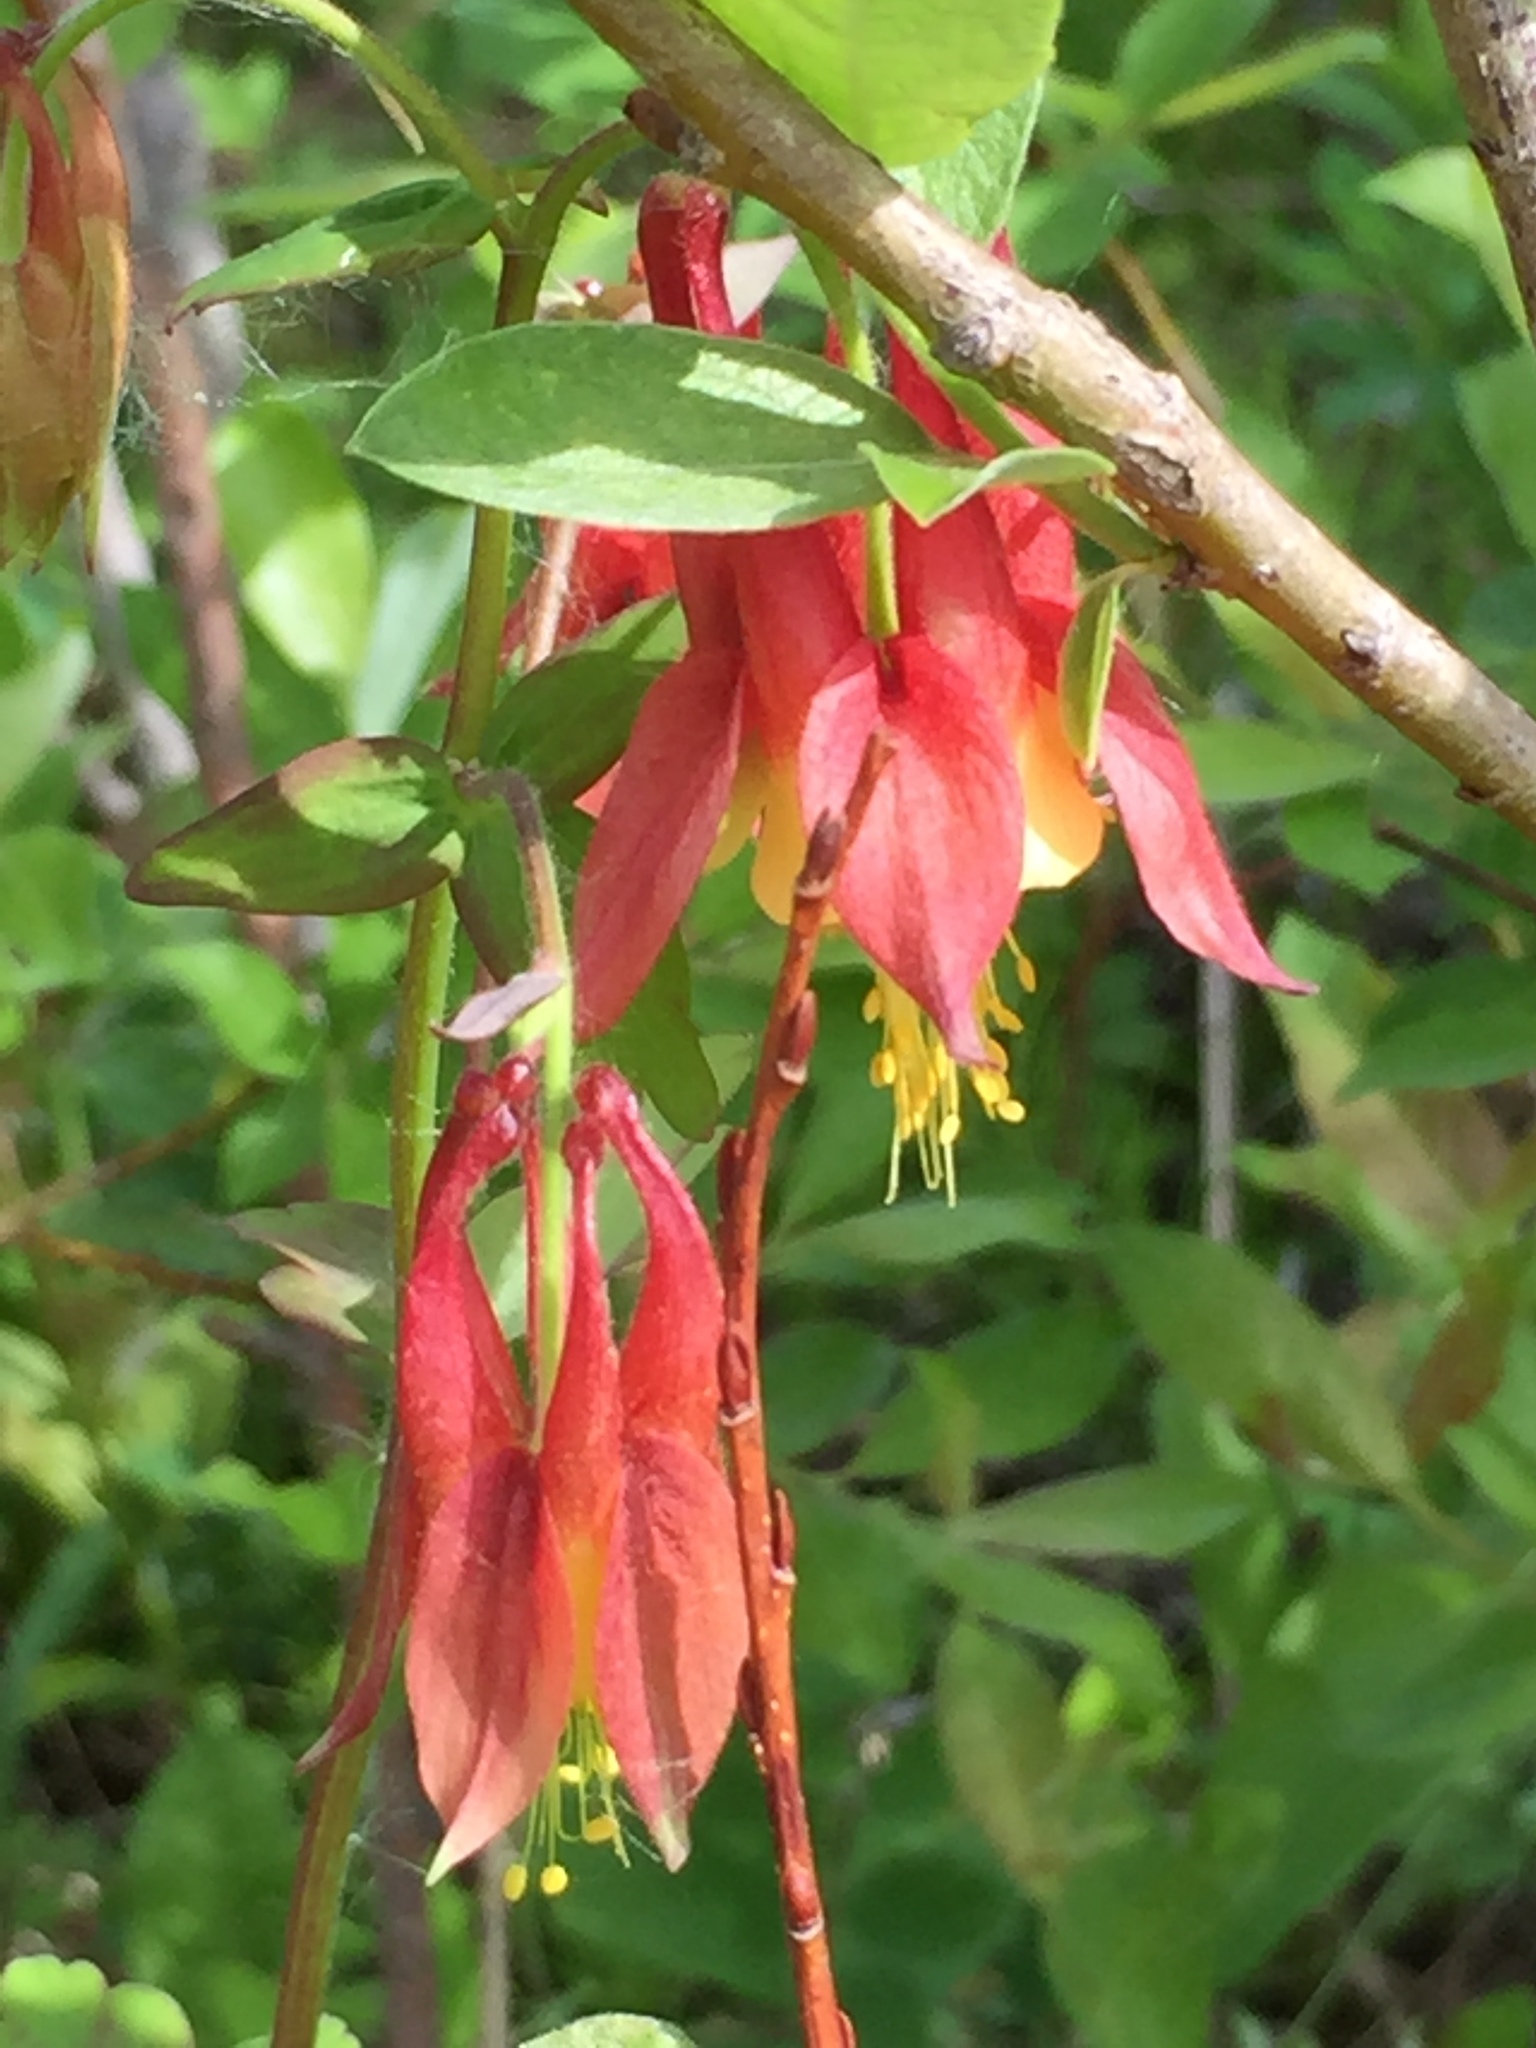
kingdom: Plantae
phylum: Tracheophyta
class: Magnoliopsida
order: Ranunculales
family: Ranunculaceae
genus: Aquilegia
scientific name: Aquilegia canadensis
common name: American columbine
